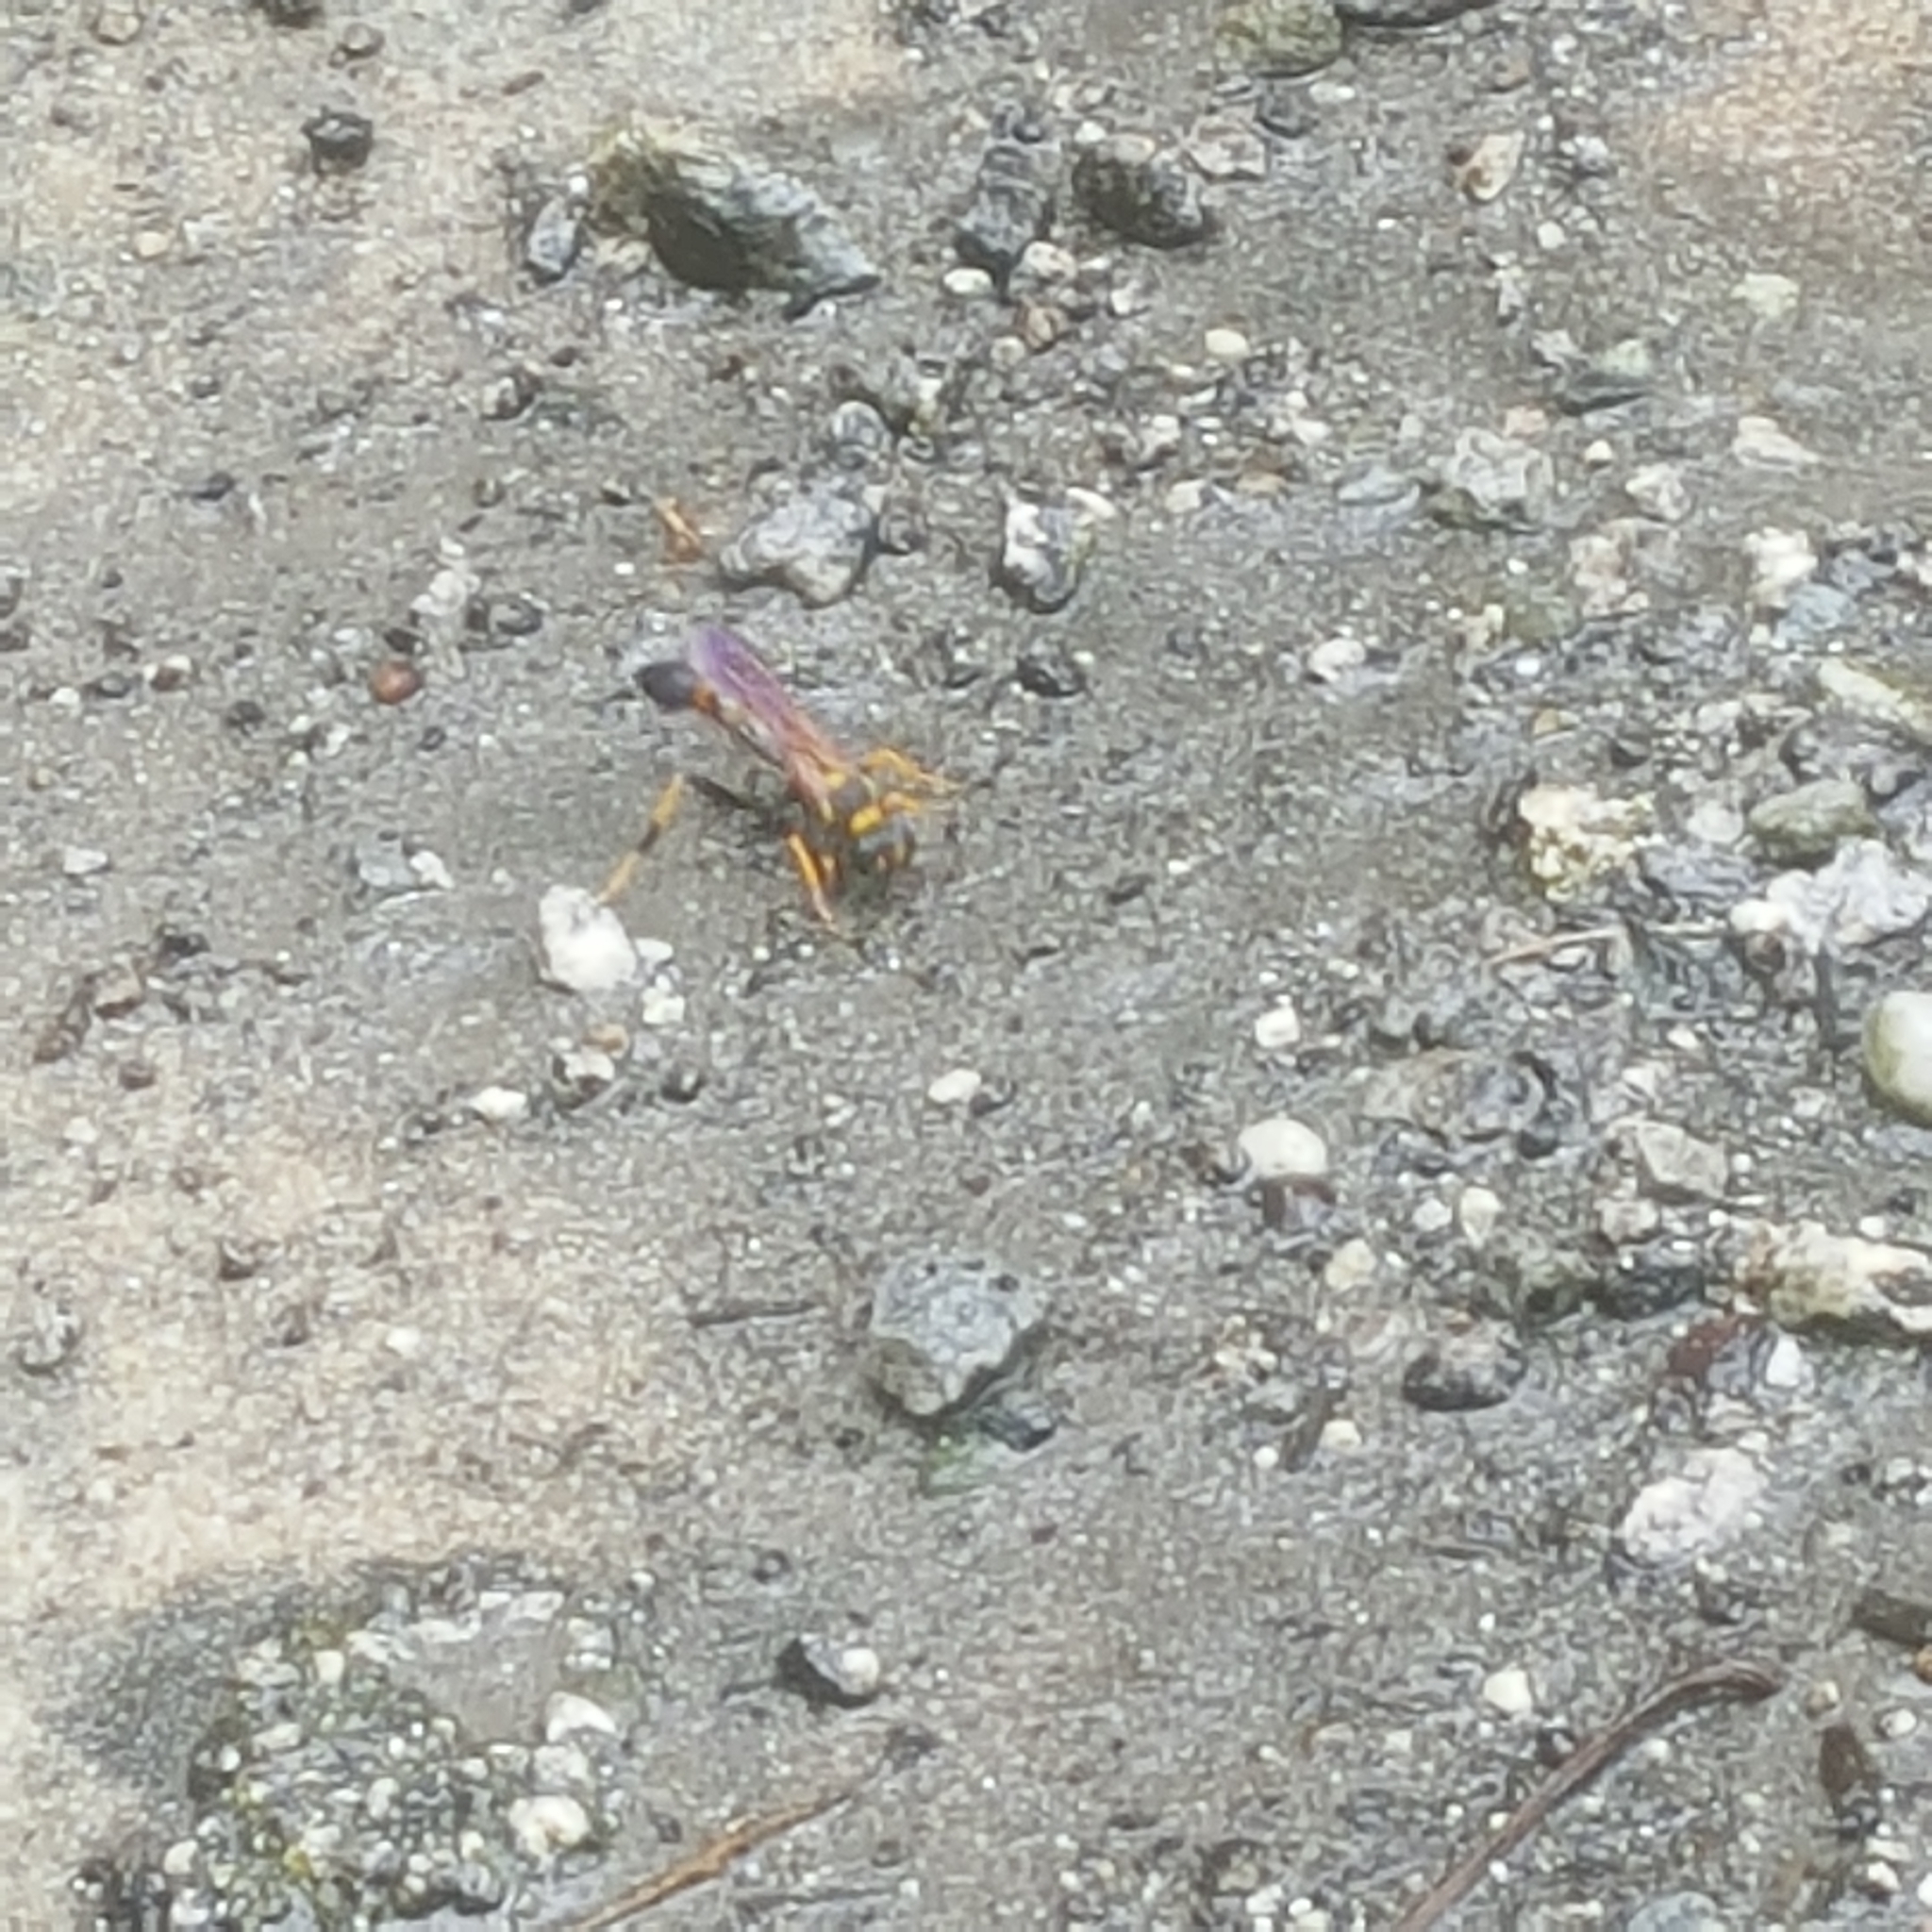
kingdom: Animalia
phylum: Arthropoda
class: Insecta
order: Hymenoptera
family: Sphecidae
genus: Sceliphron
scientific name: Sceliphron caementarium
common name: Mud dauber
